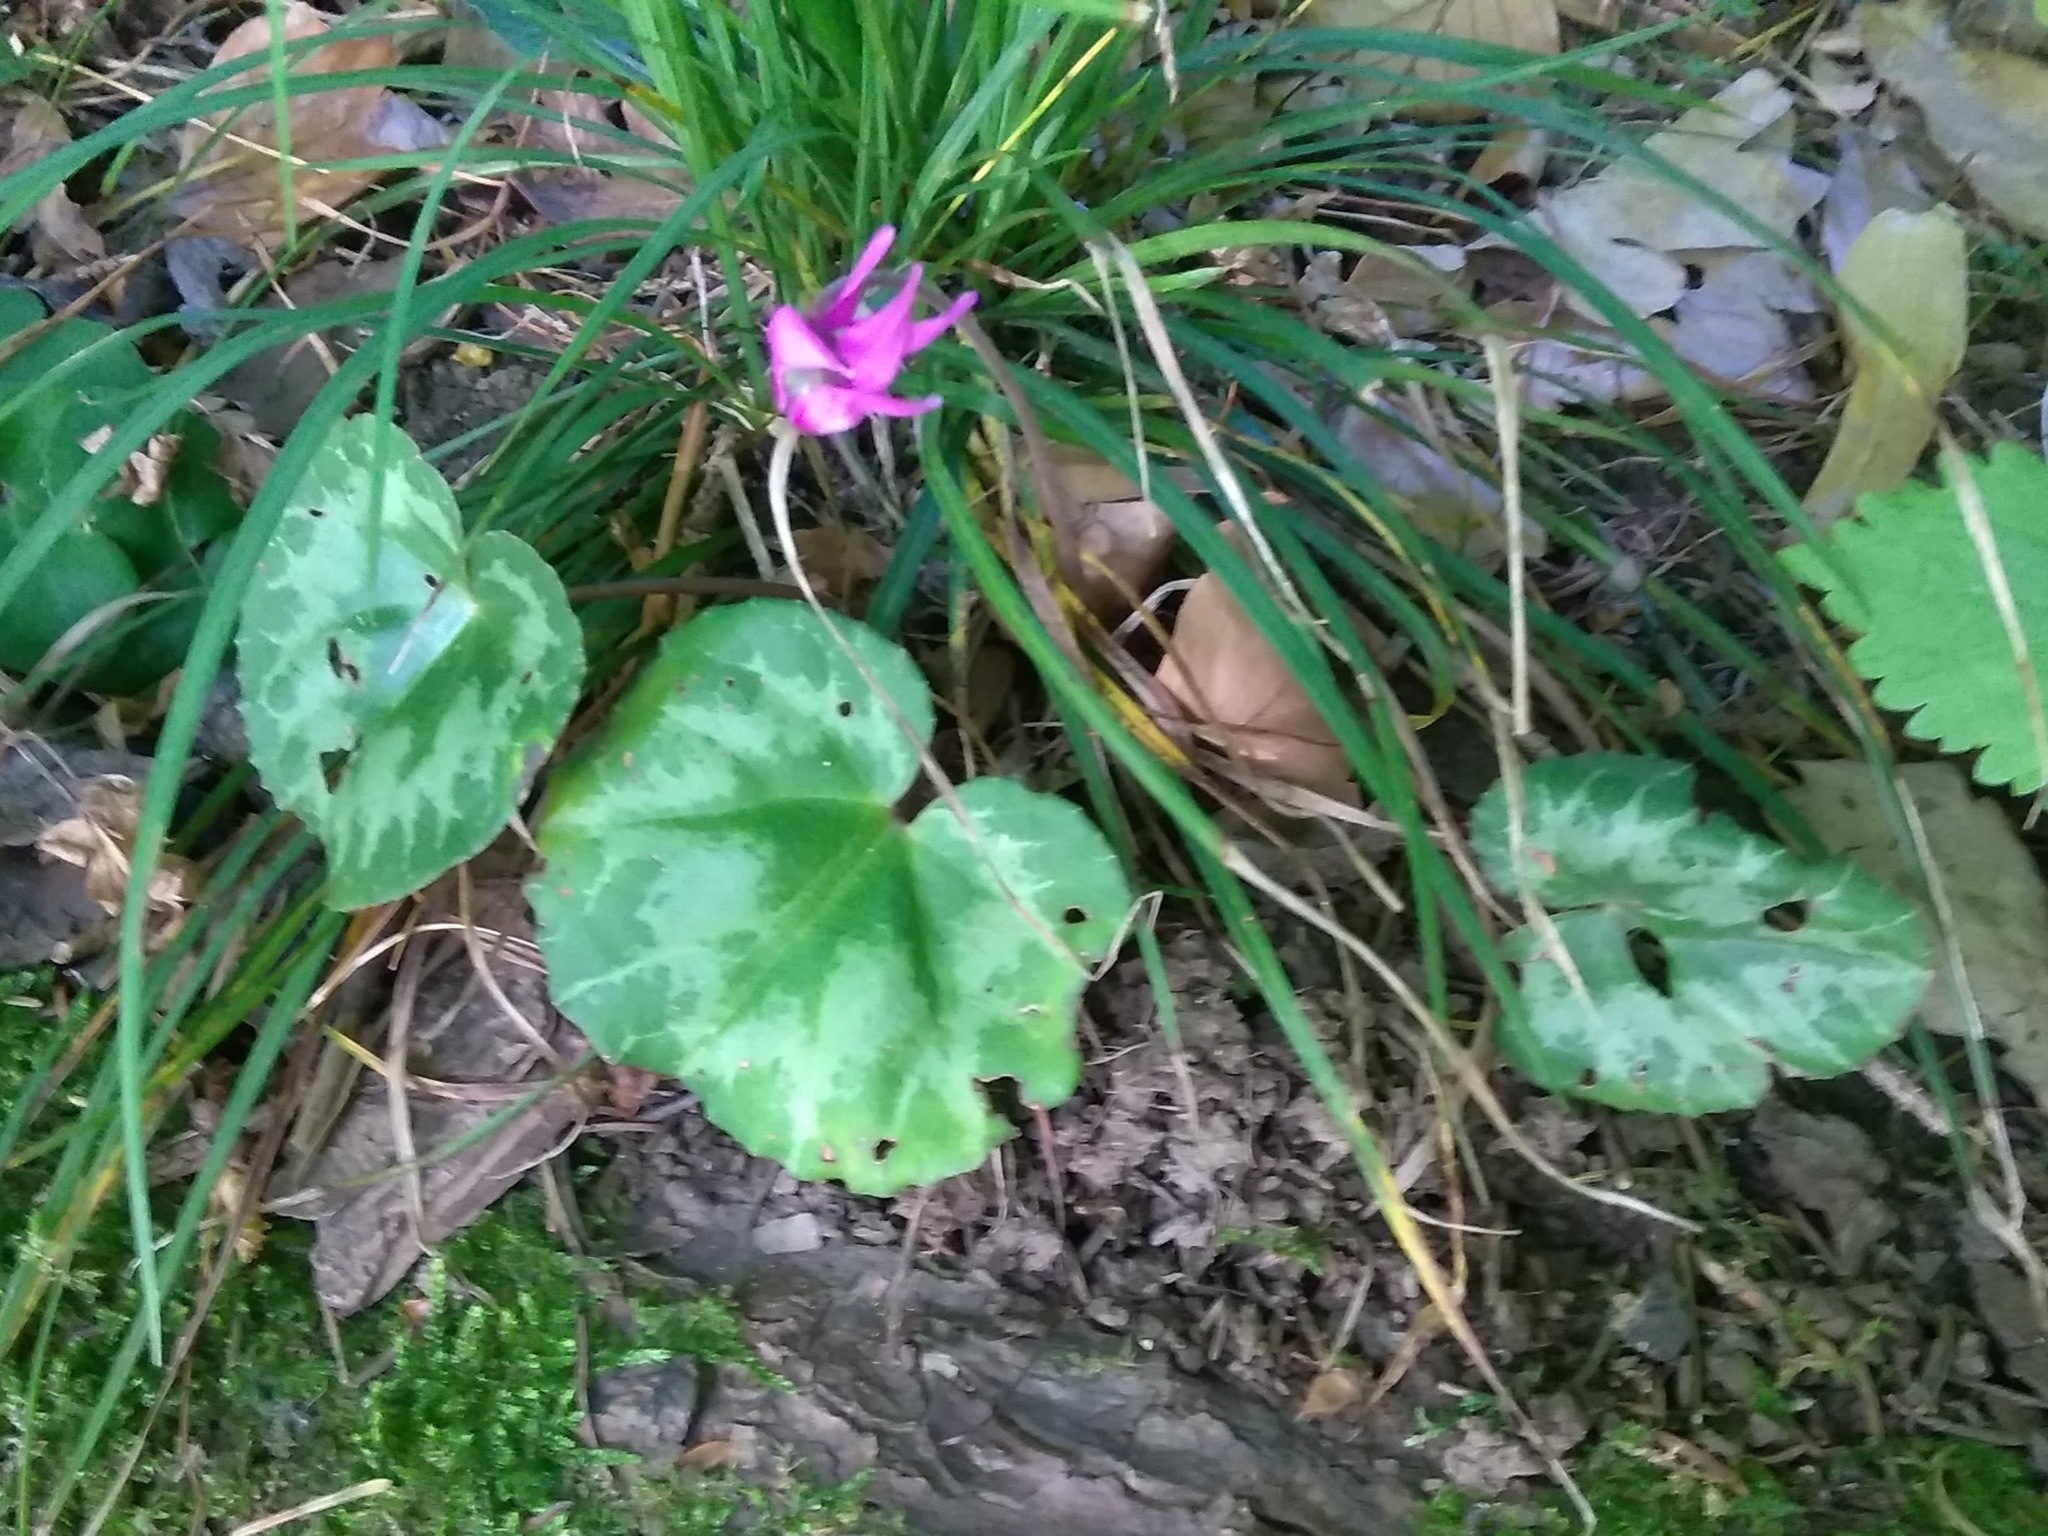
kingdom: Plantae
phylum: Tracheophyta
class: Magnoliopsida
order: Ericales
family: Primulaceae
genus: Cyclamen
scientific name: Cyclamen purpurascens
